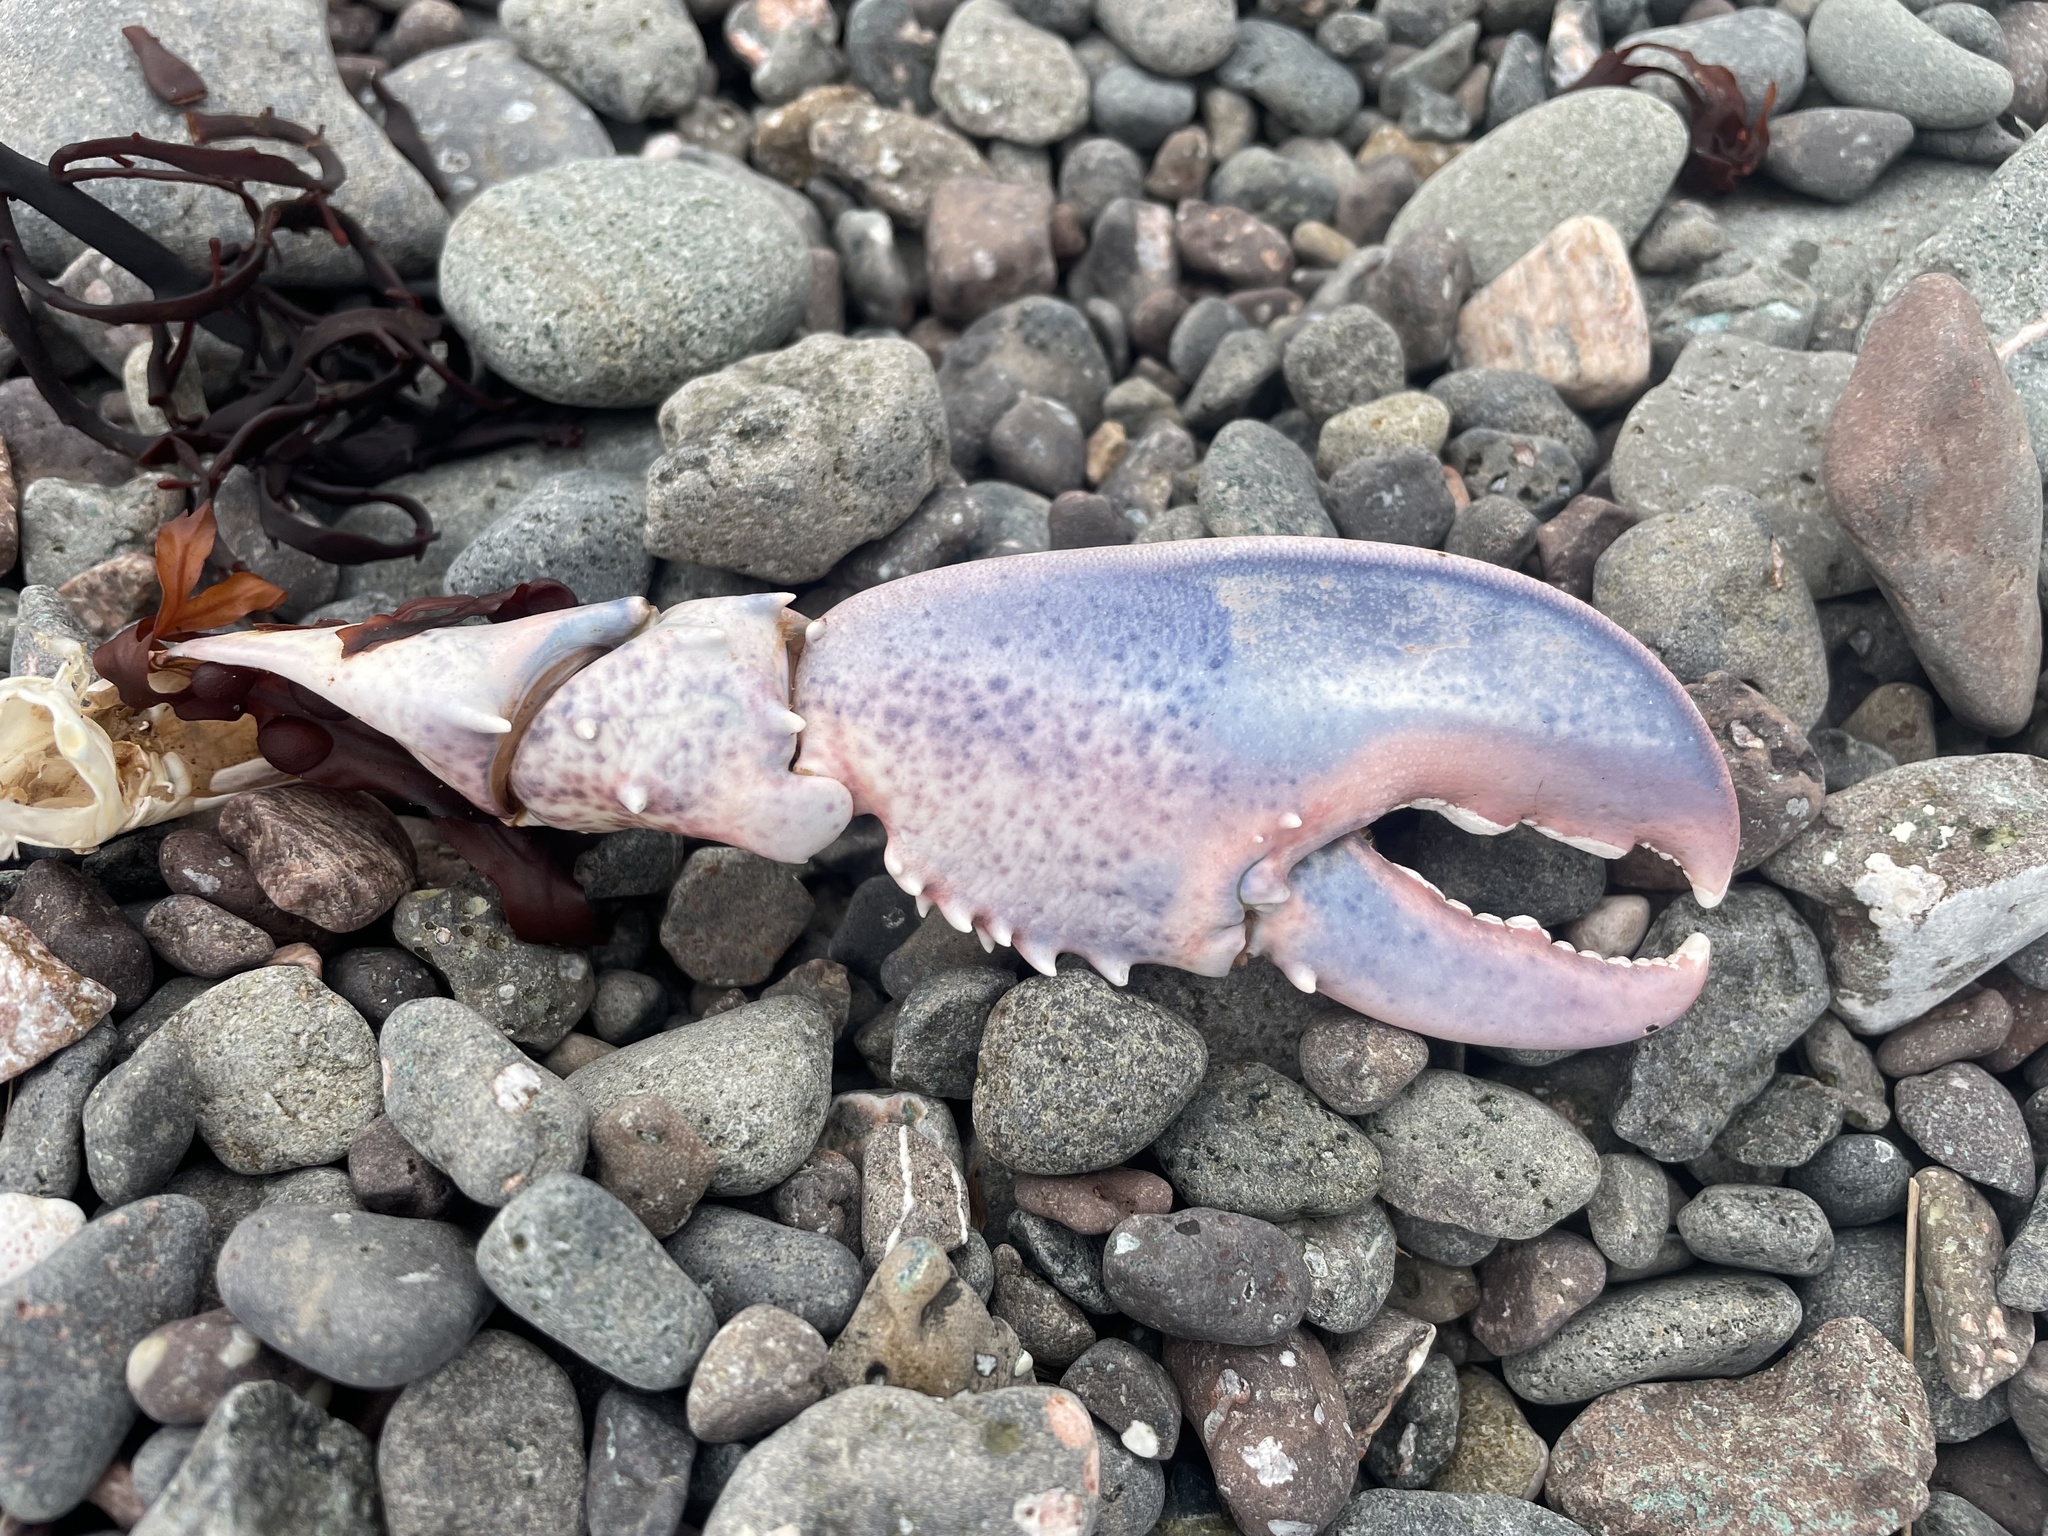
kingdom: Animalia
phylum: Arthropoda
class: Malacostraca
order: Decapoda
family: Nephropidae
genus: Homarus
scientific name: Homarus americanus
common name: American lobster
